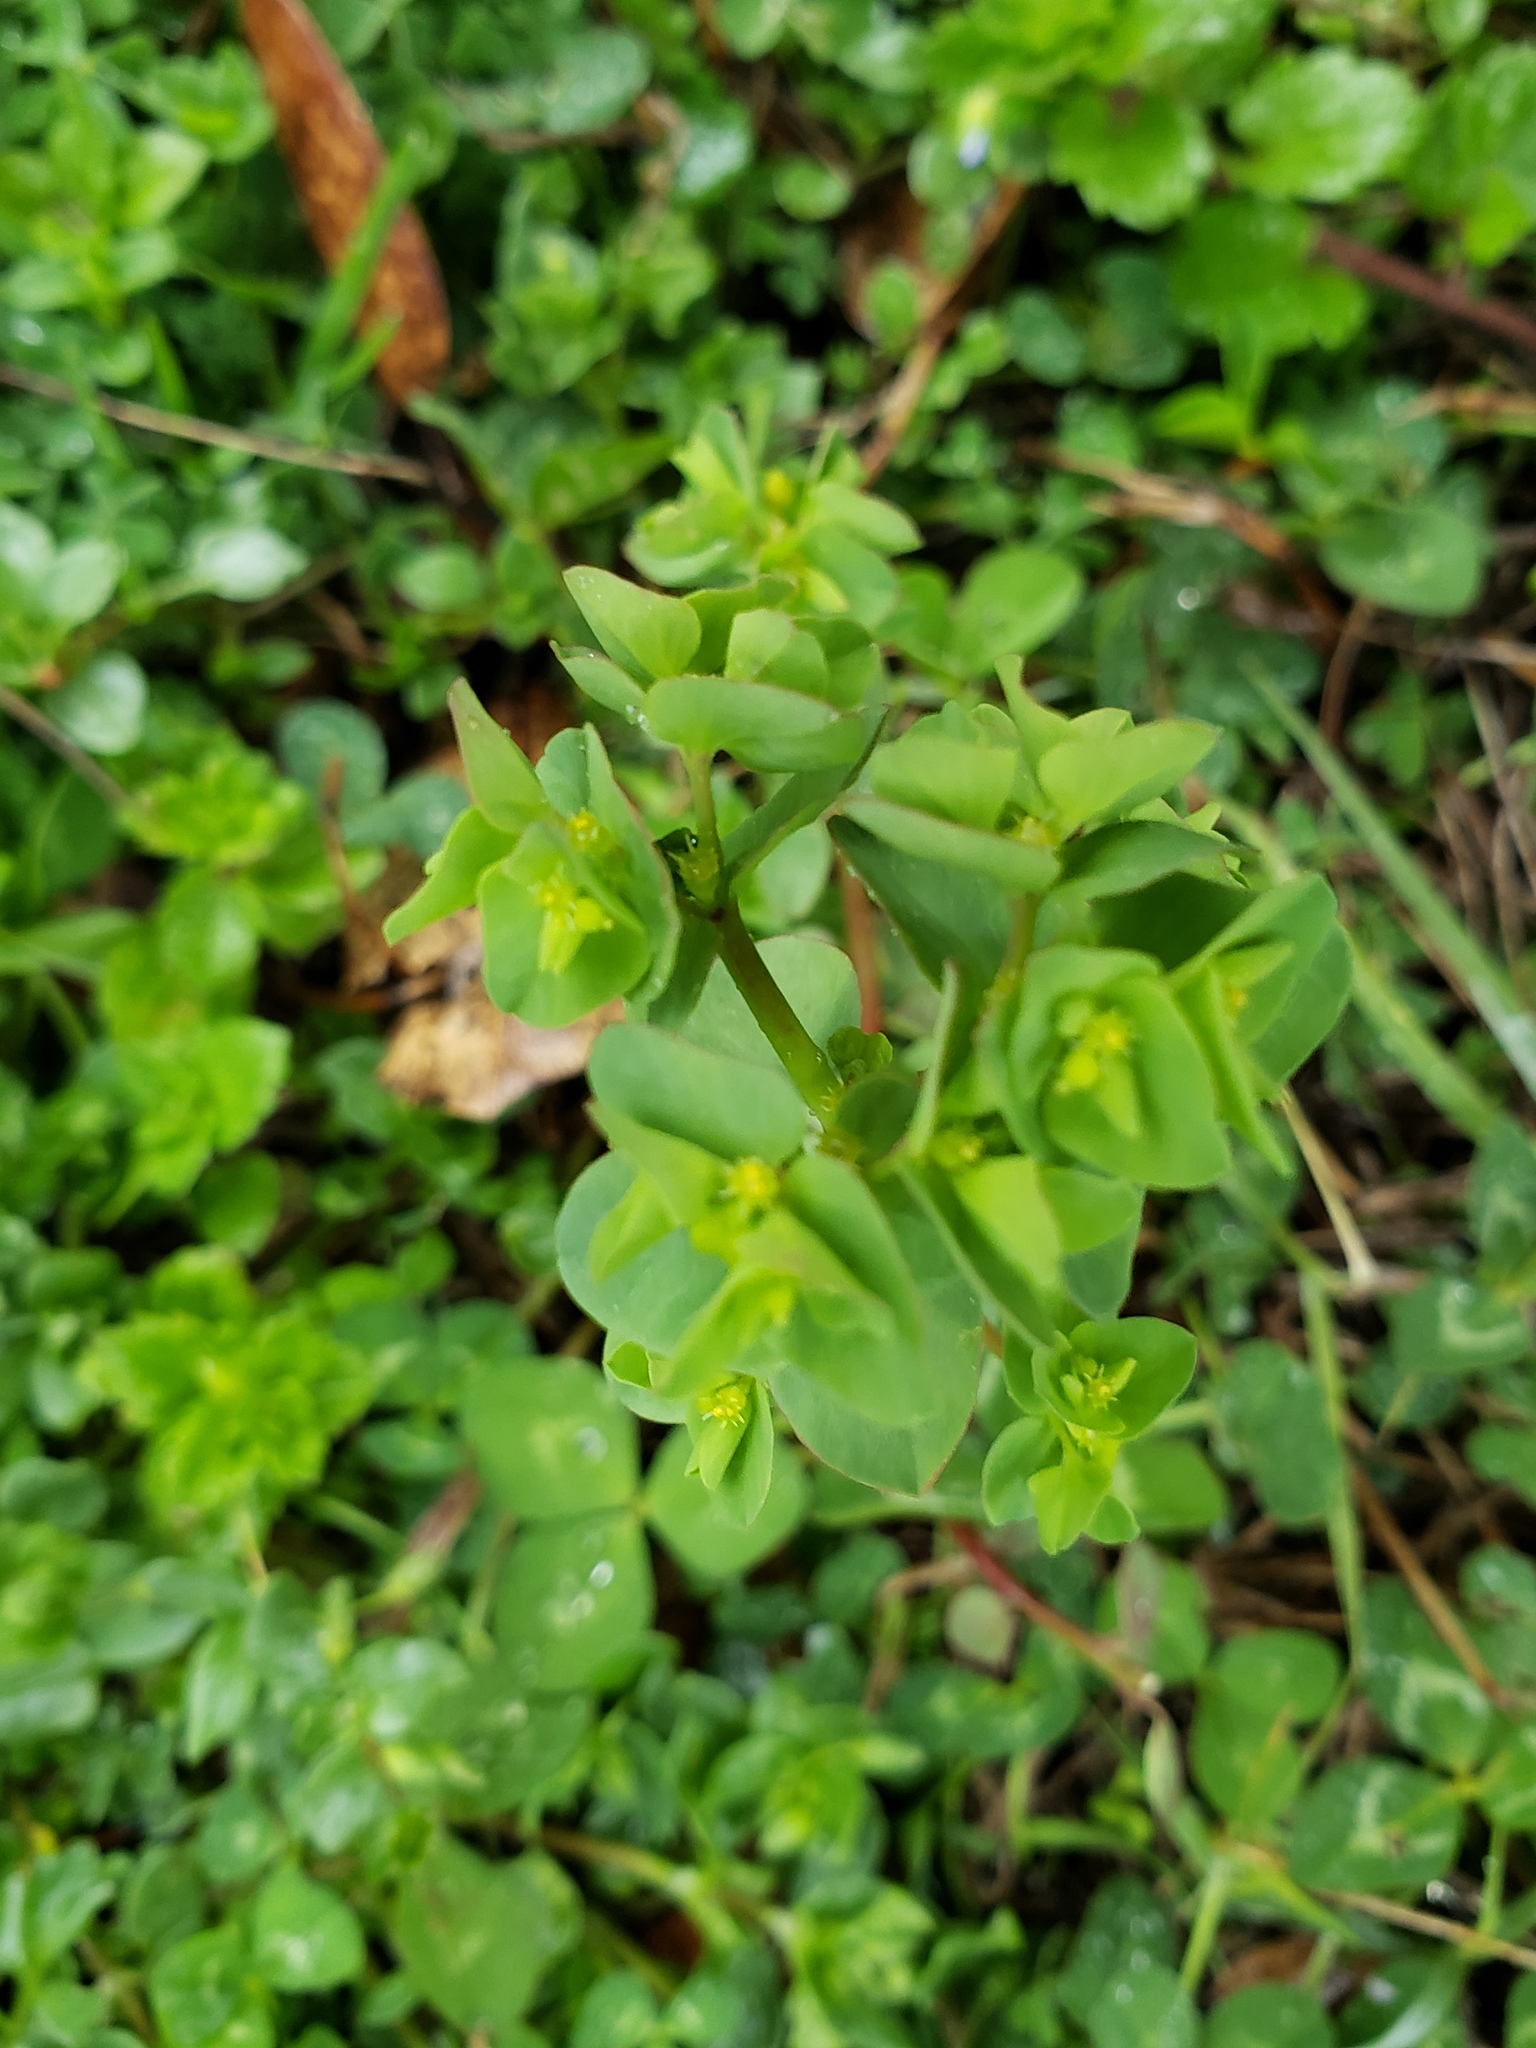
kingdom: Plantae
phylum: Tracheophyta
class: Magnoliopsida
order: Malpighiales
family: Euphorbiaceae
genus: Euphorbia
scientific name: Euphorbia peplus
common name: Petty spurge
